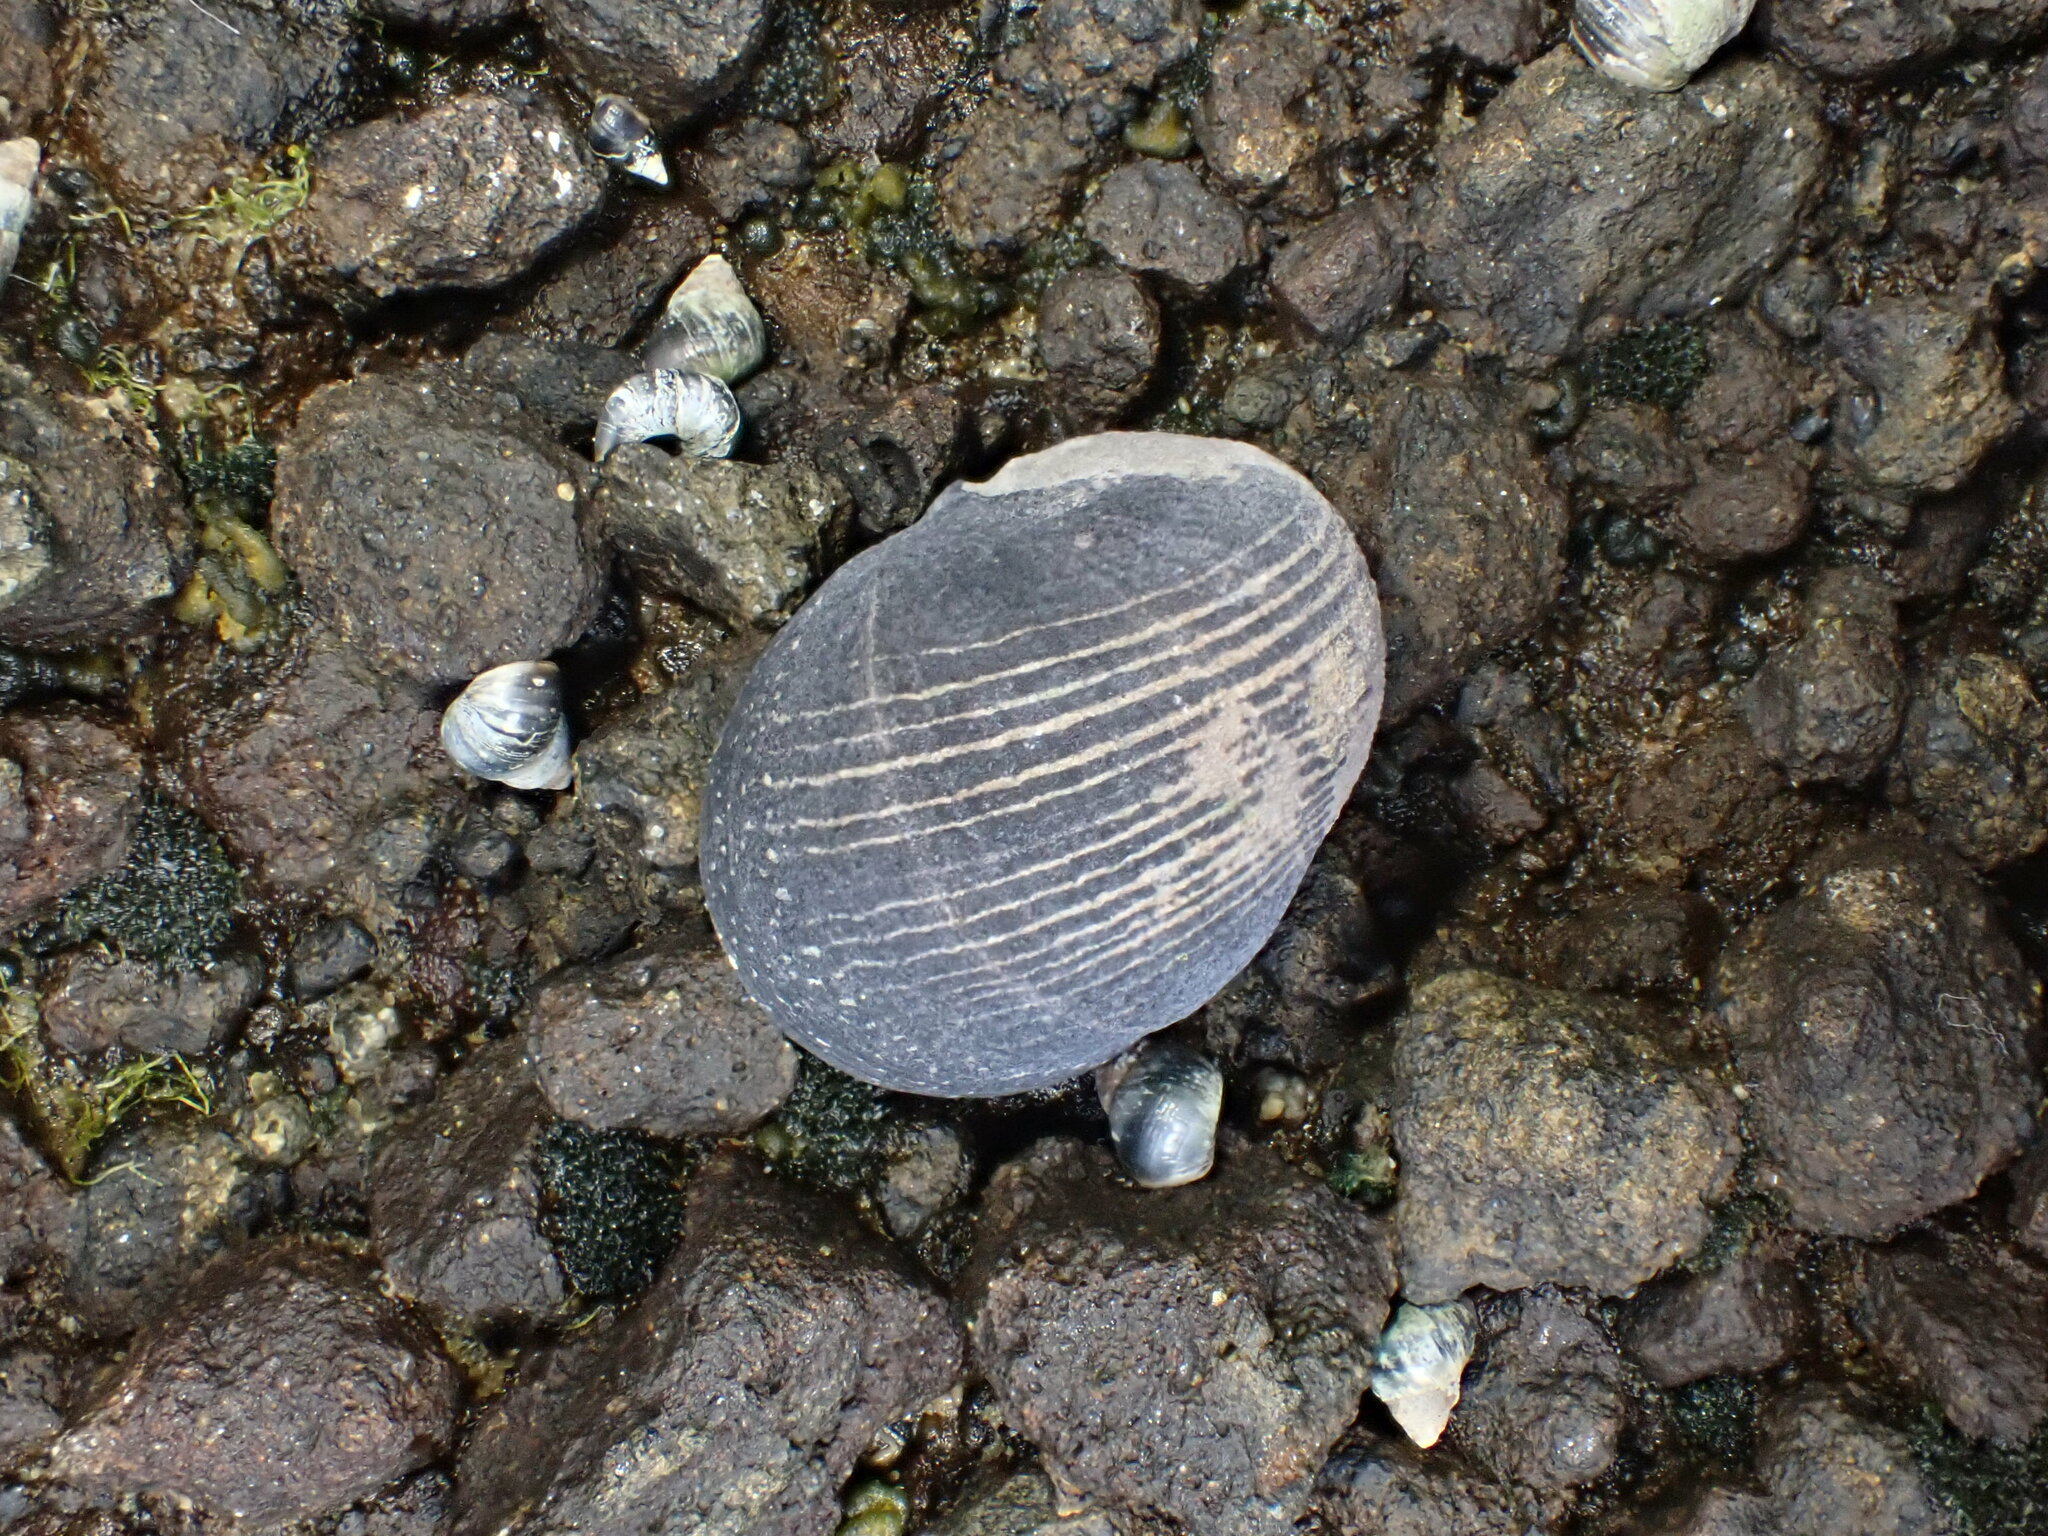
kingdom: Animalia
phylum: Mollusca
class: Gastropoda
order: Cycloneritida
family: Neritidae
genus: Nerita
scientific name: Nerita melanotragus
